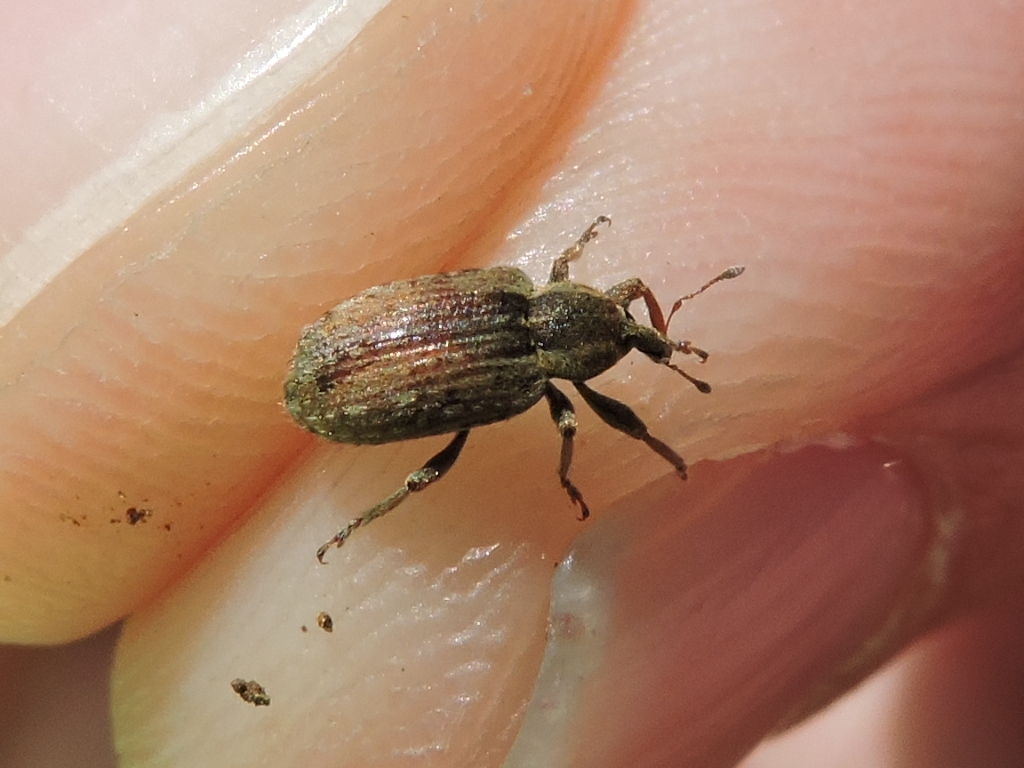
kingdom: Animalia
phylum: Arthropoda
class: Insecta
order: Coleoptera
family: Curculionidae
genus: Hypera
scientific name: Hypera postica
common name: Weevil
